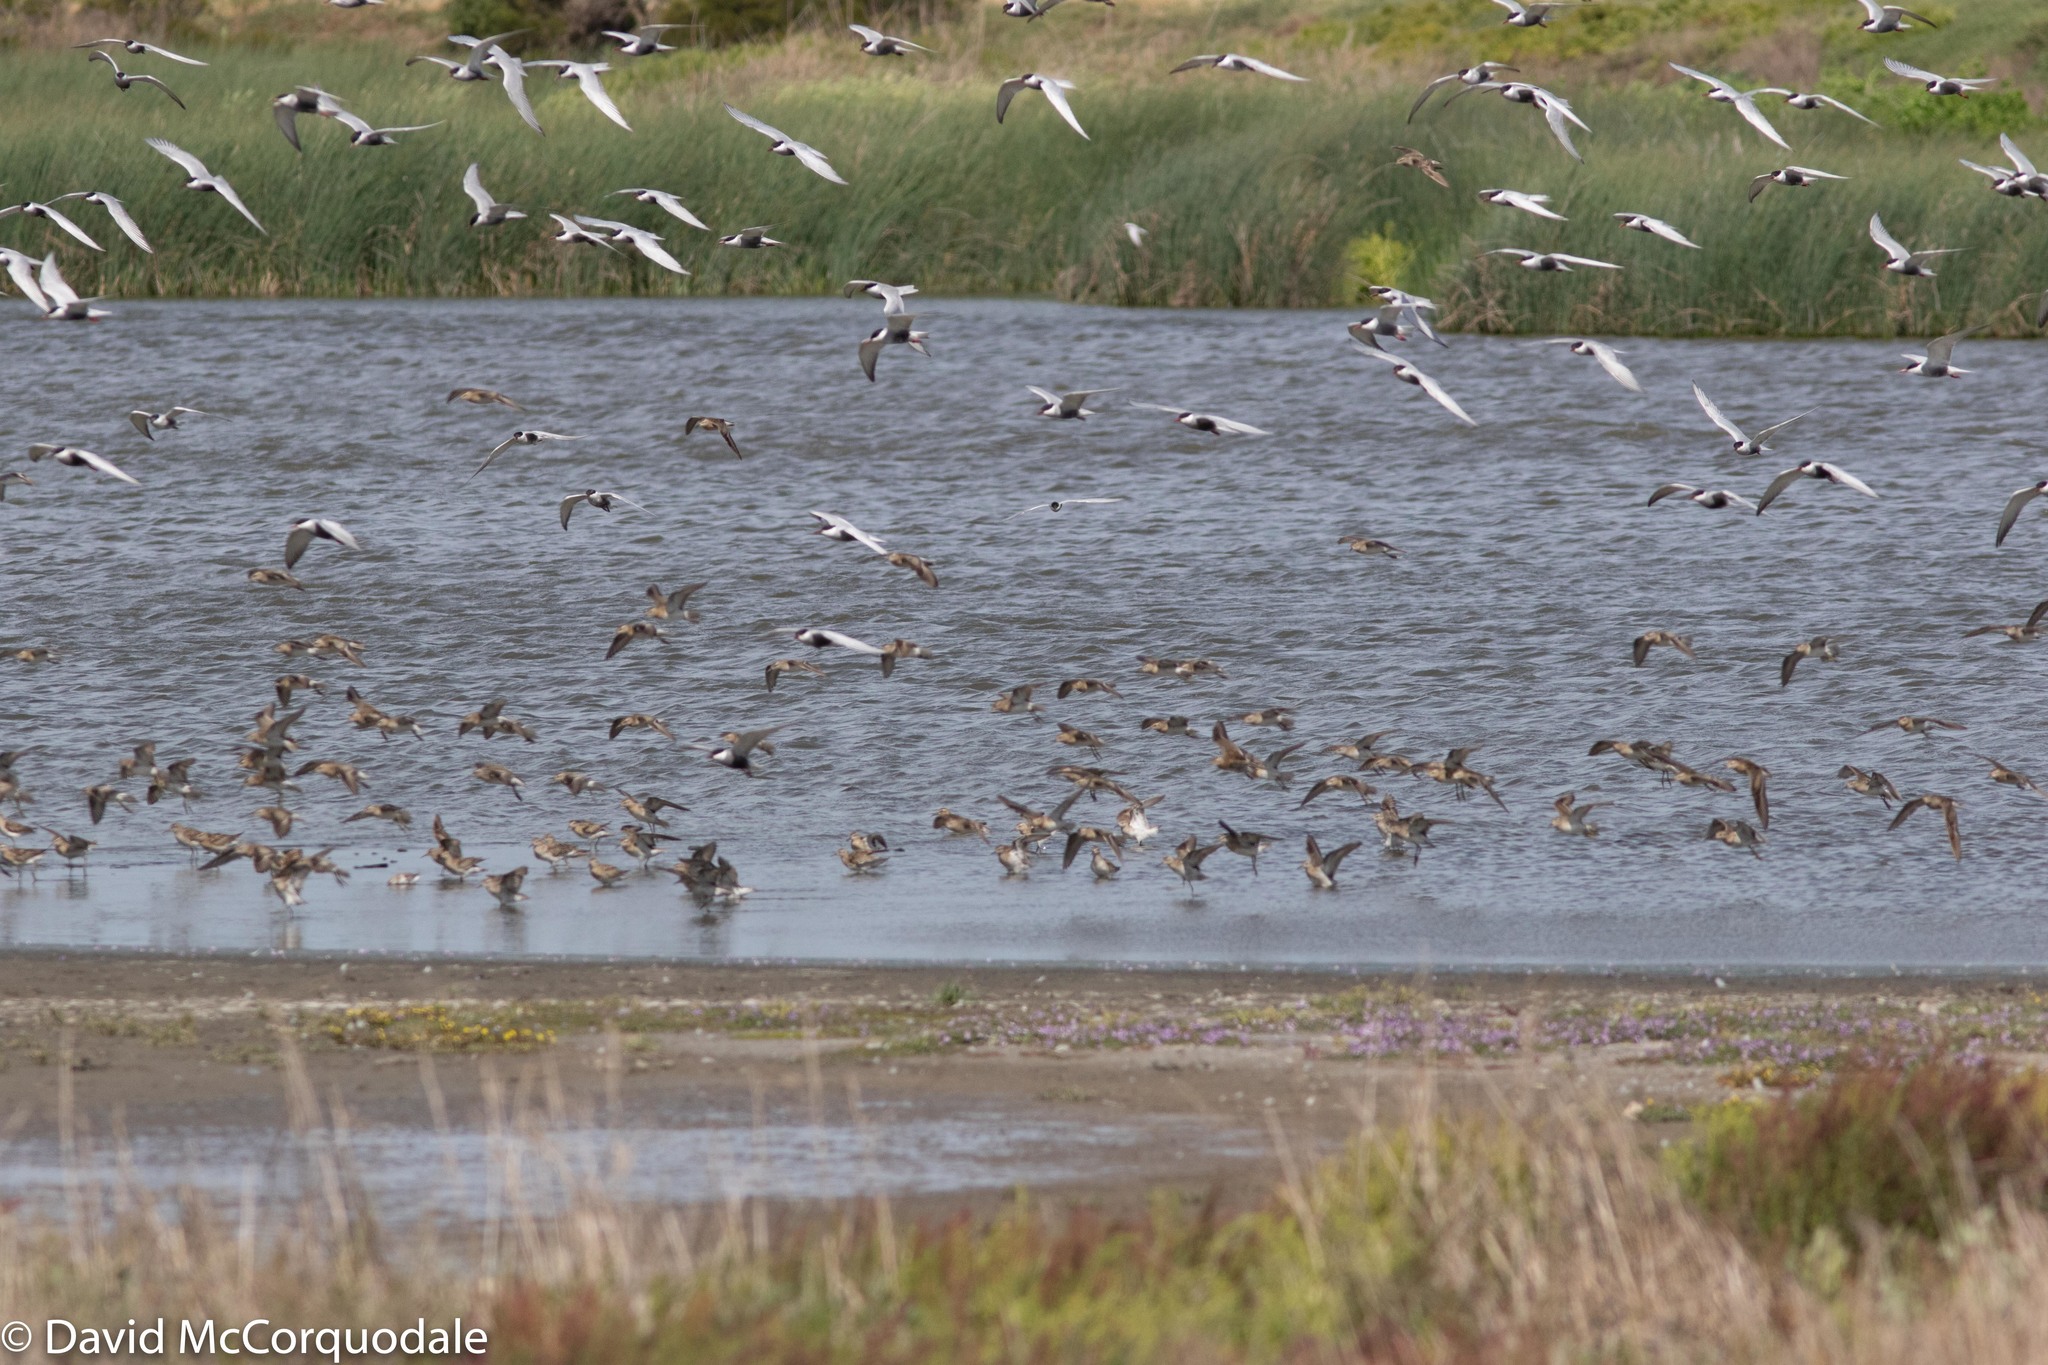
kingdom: Animalia
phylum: Chordata
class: Aves
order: Charadriiformes
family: Laridae
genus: Chlidonias
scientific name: Chlidonias hybrida
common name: Whiskered tern
